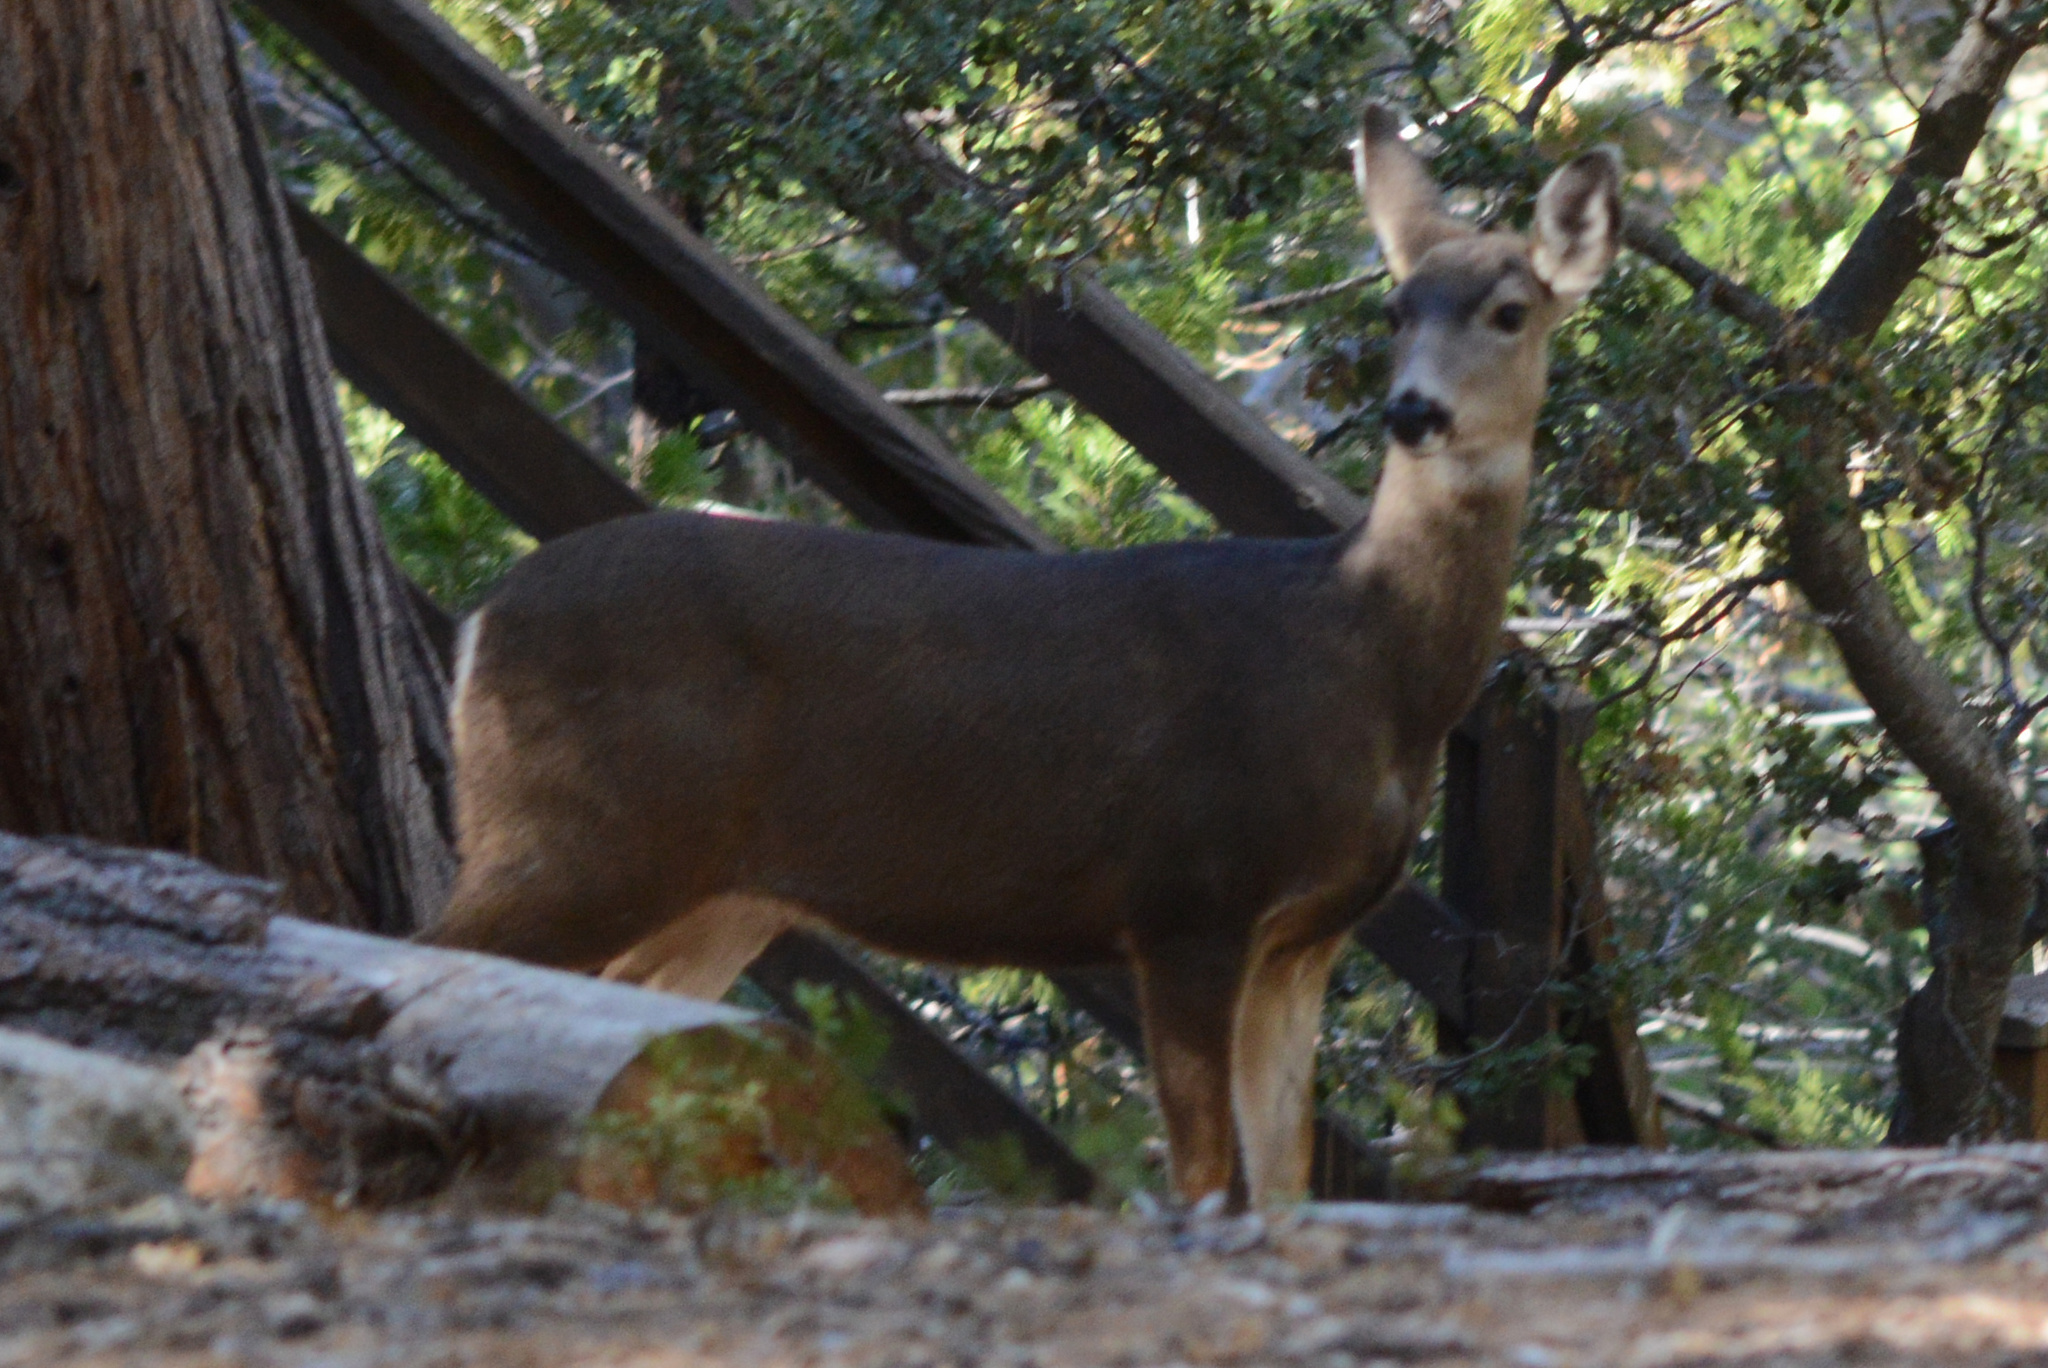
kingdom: Animalia
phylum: Chordata
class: Mammalia
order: Artiodactyla
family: Cervidae
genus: Odocoileus
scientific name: Odocoileus hemionus
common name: Mule deer
